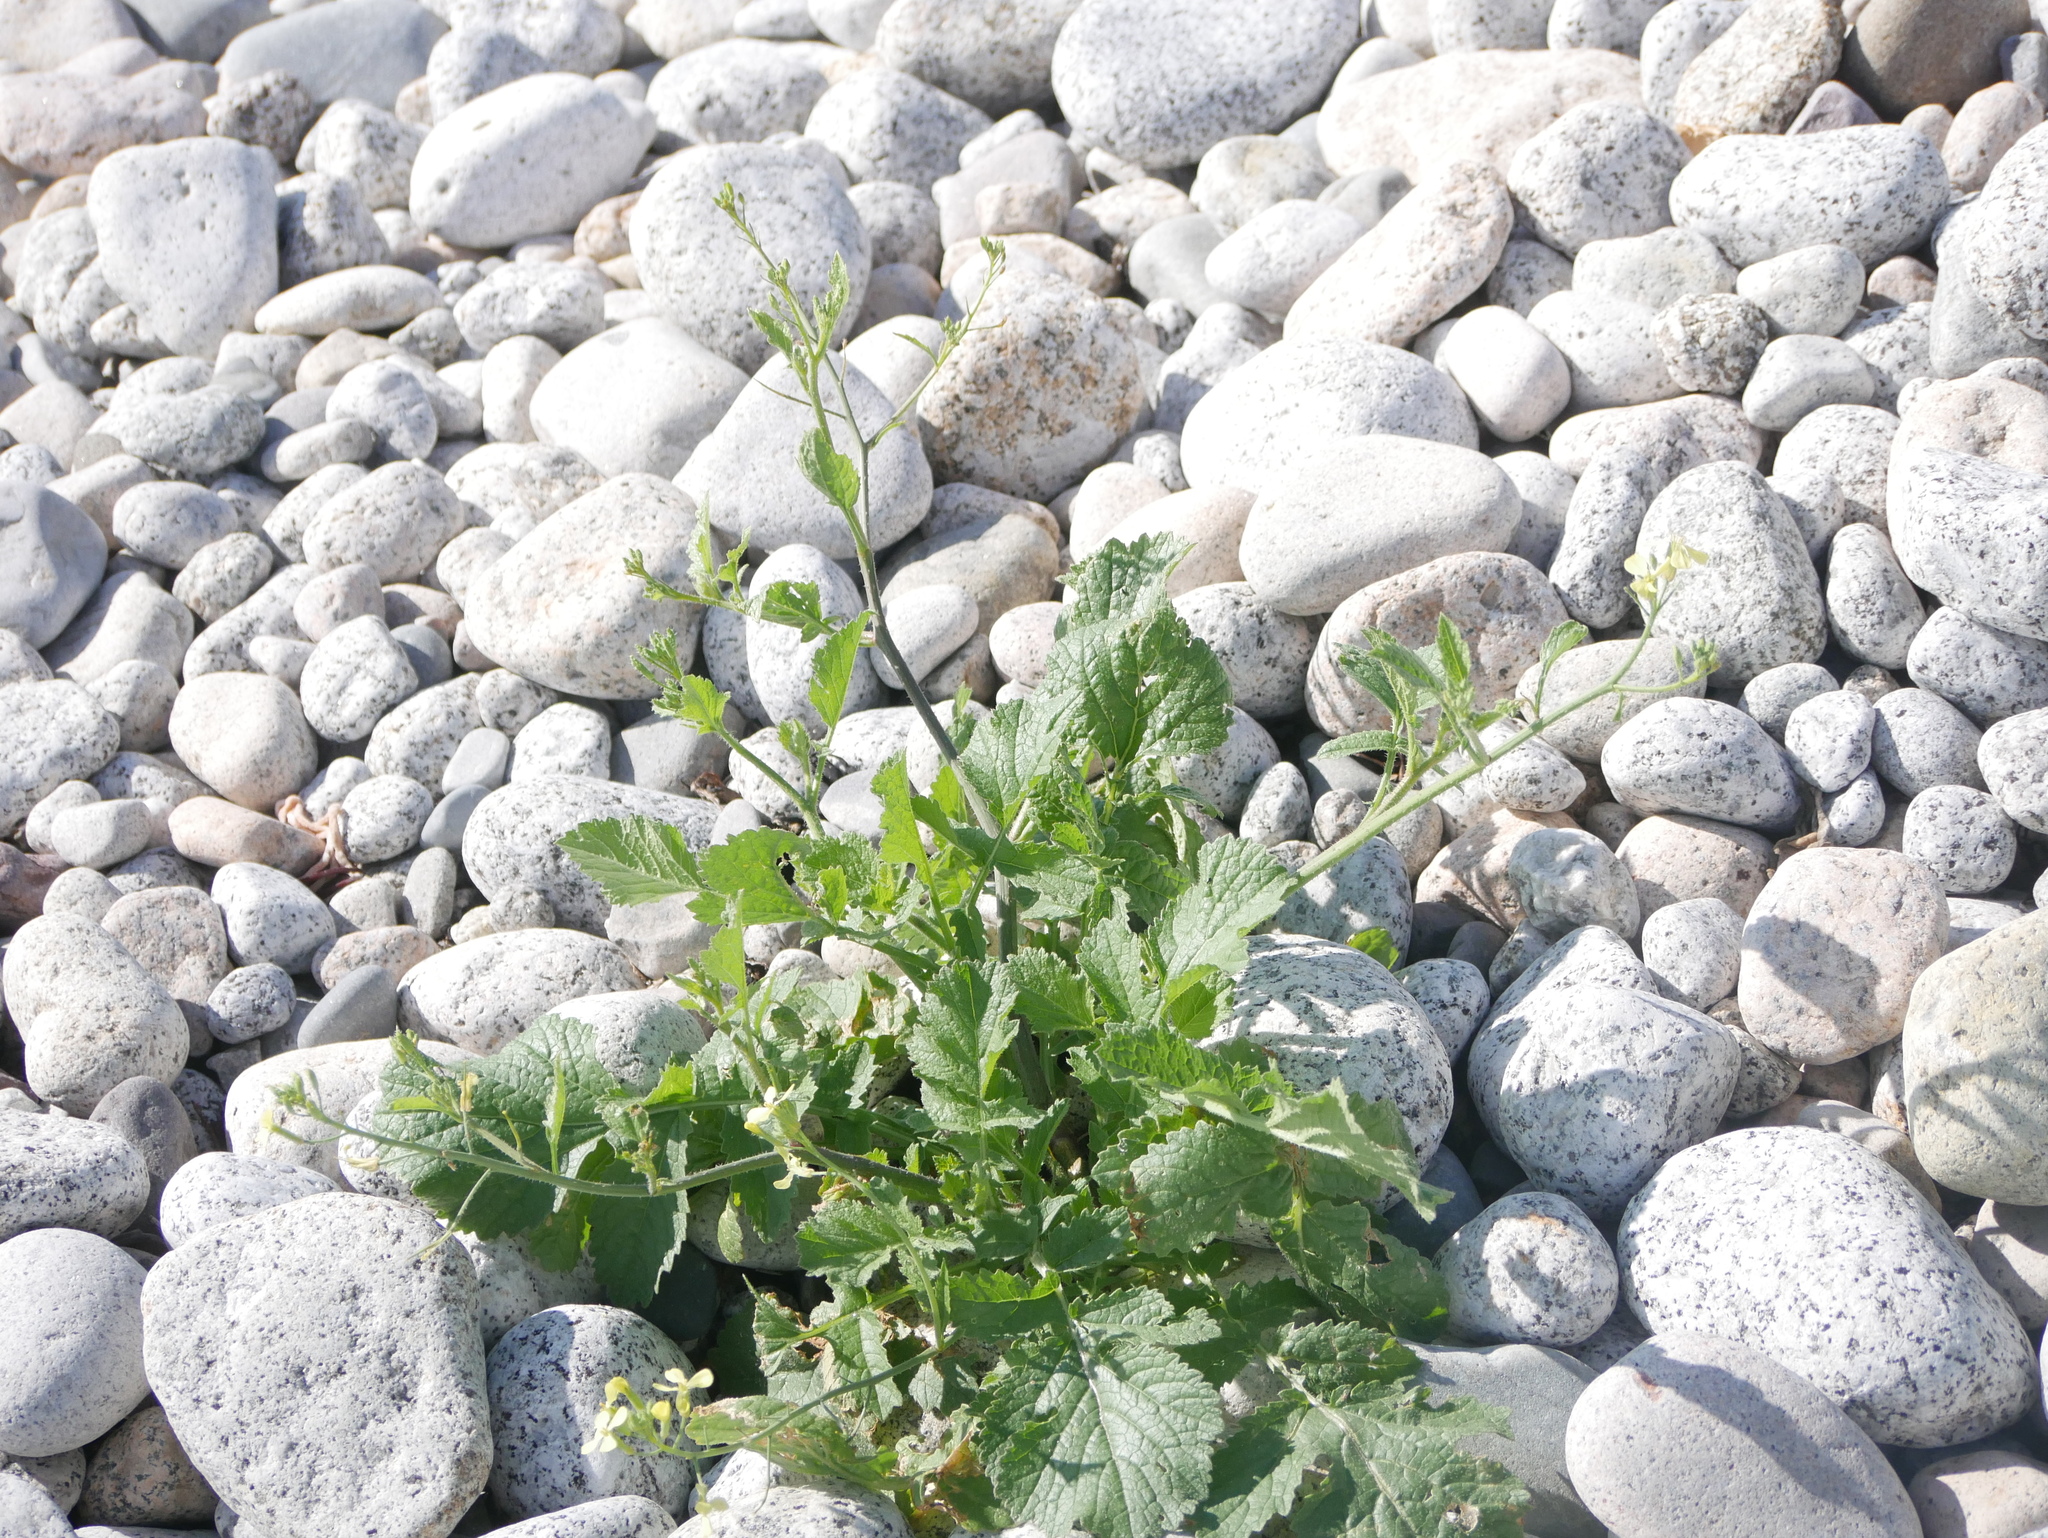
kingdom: Plantae
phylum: Tracheophyta
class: Magnoliopsida
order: Brassicales
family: Brassicaceae
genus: Raphanus
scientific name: Raphanus raphanistrum
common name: Wild radish
